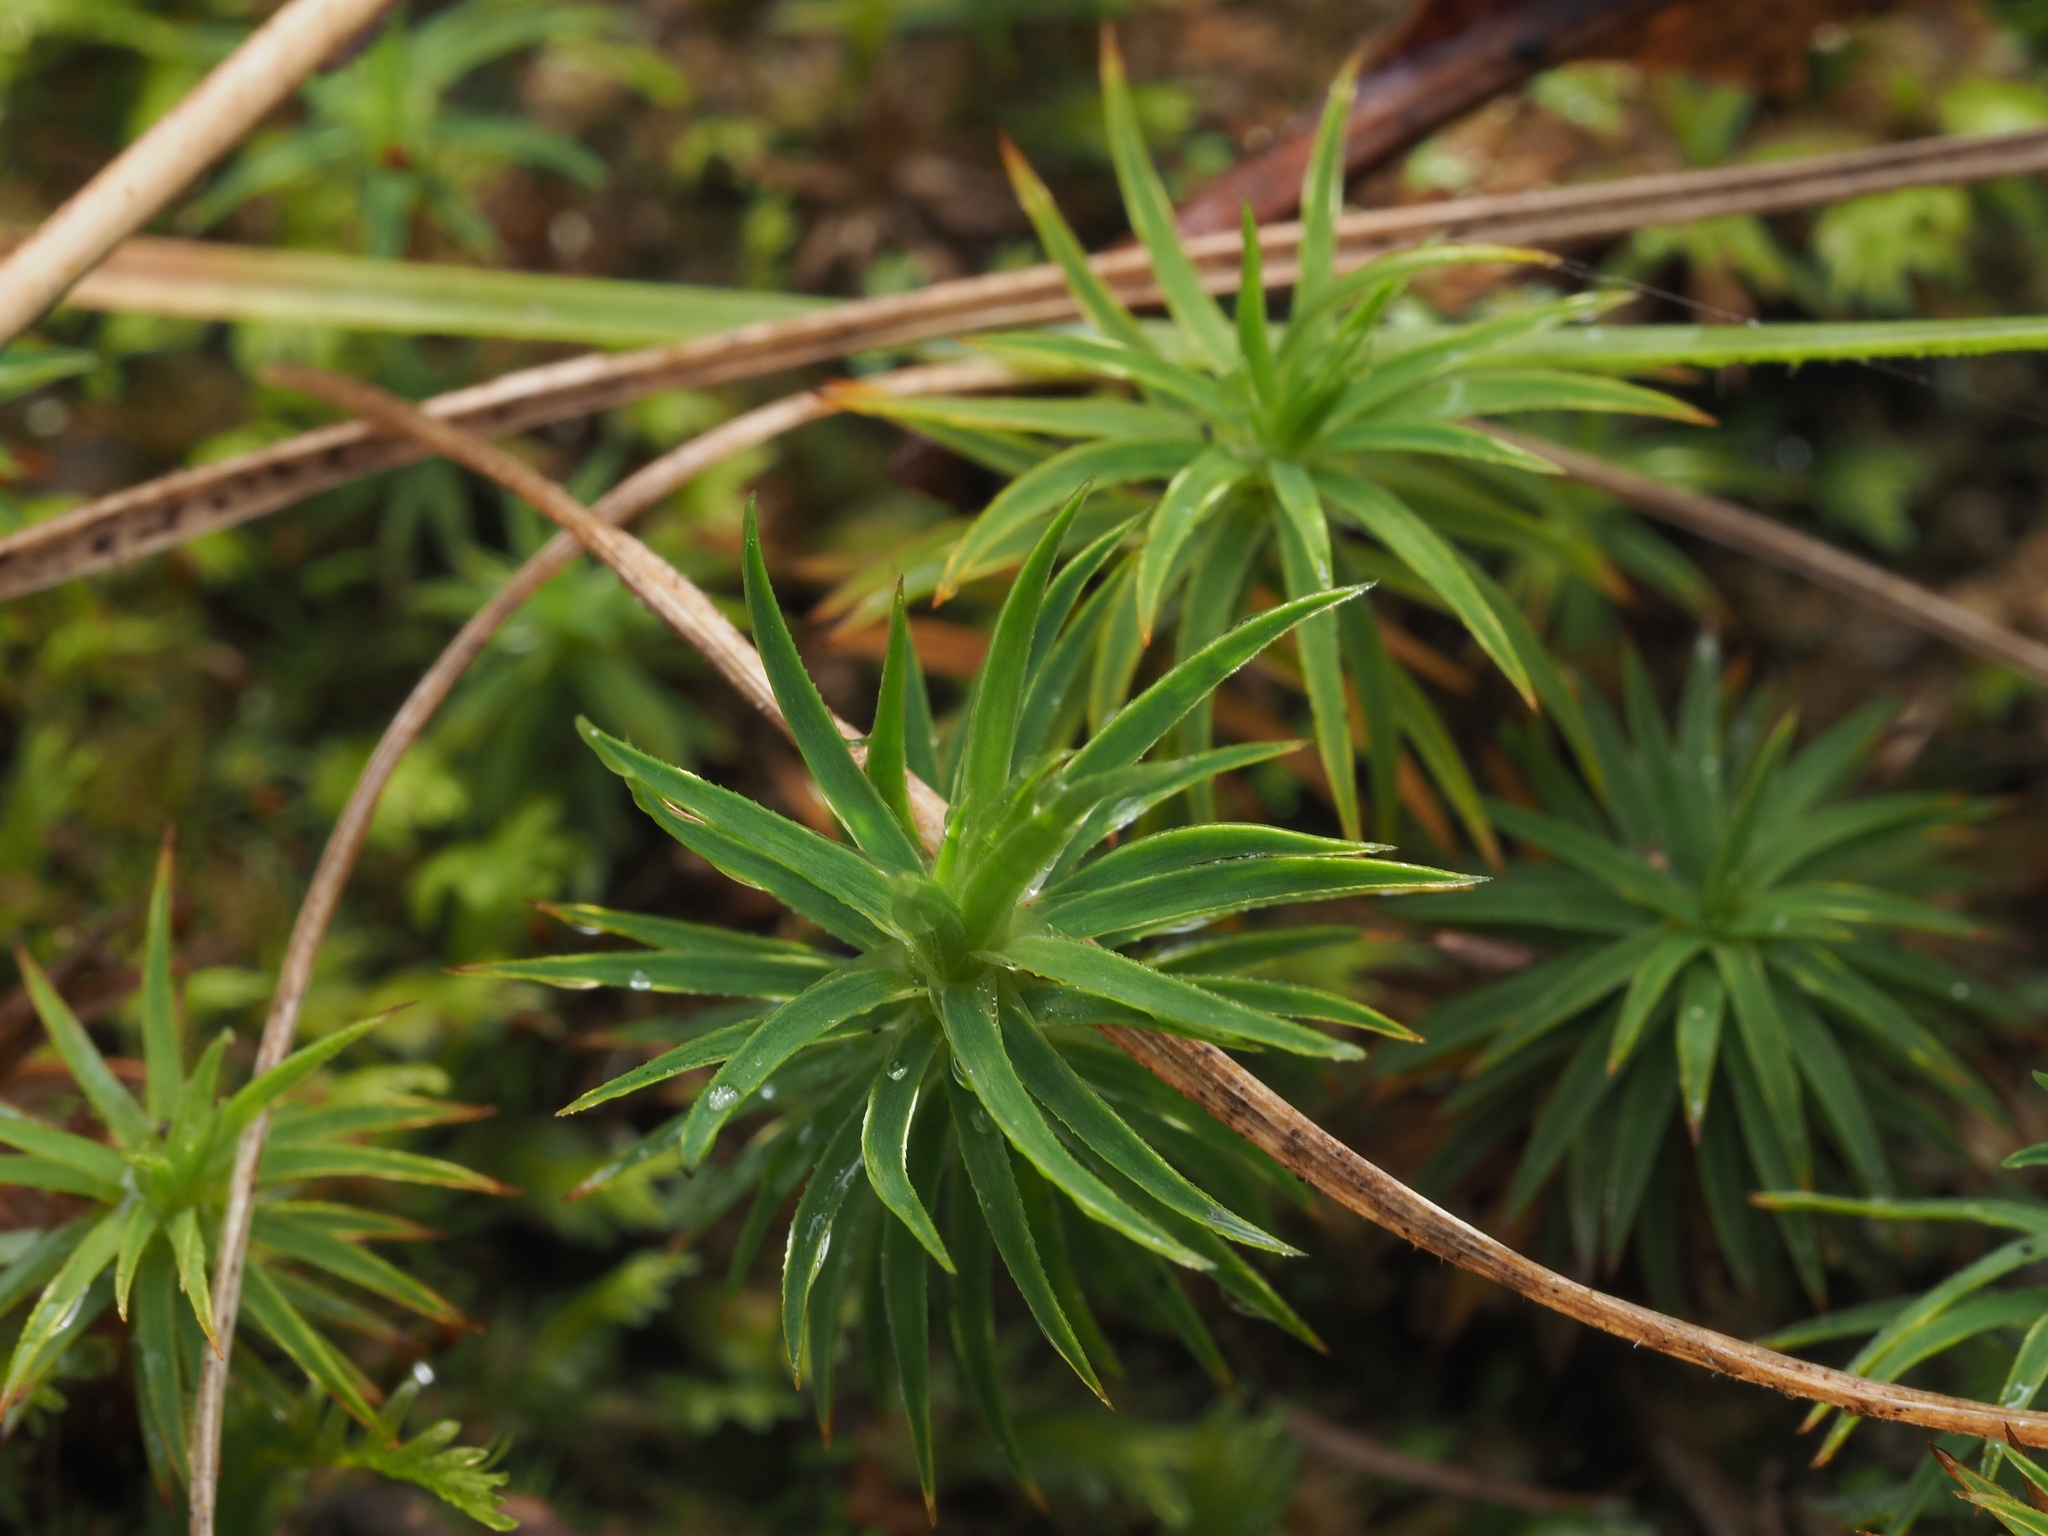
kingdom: Plantae
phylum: Bryophyta
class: Polytrichopsida
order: Polytrichales
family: Polytrichaceae
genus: Polytrichadelphus
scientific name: Polytrichadelphus magellanicus
